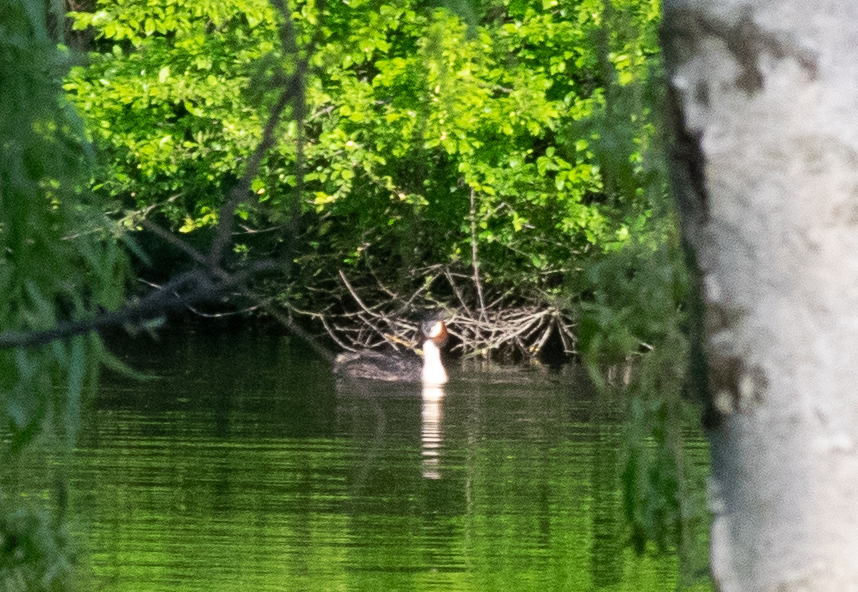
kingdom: Animalia
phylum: Chordata
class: Aves
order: Podicipediformes
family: Podicipedidae
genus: Podiceps
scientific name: Podiceps cristatus
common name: Great crested grebe
